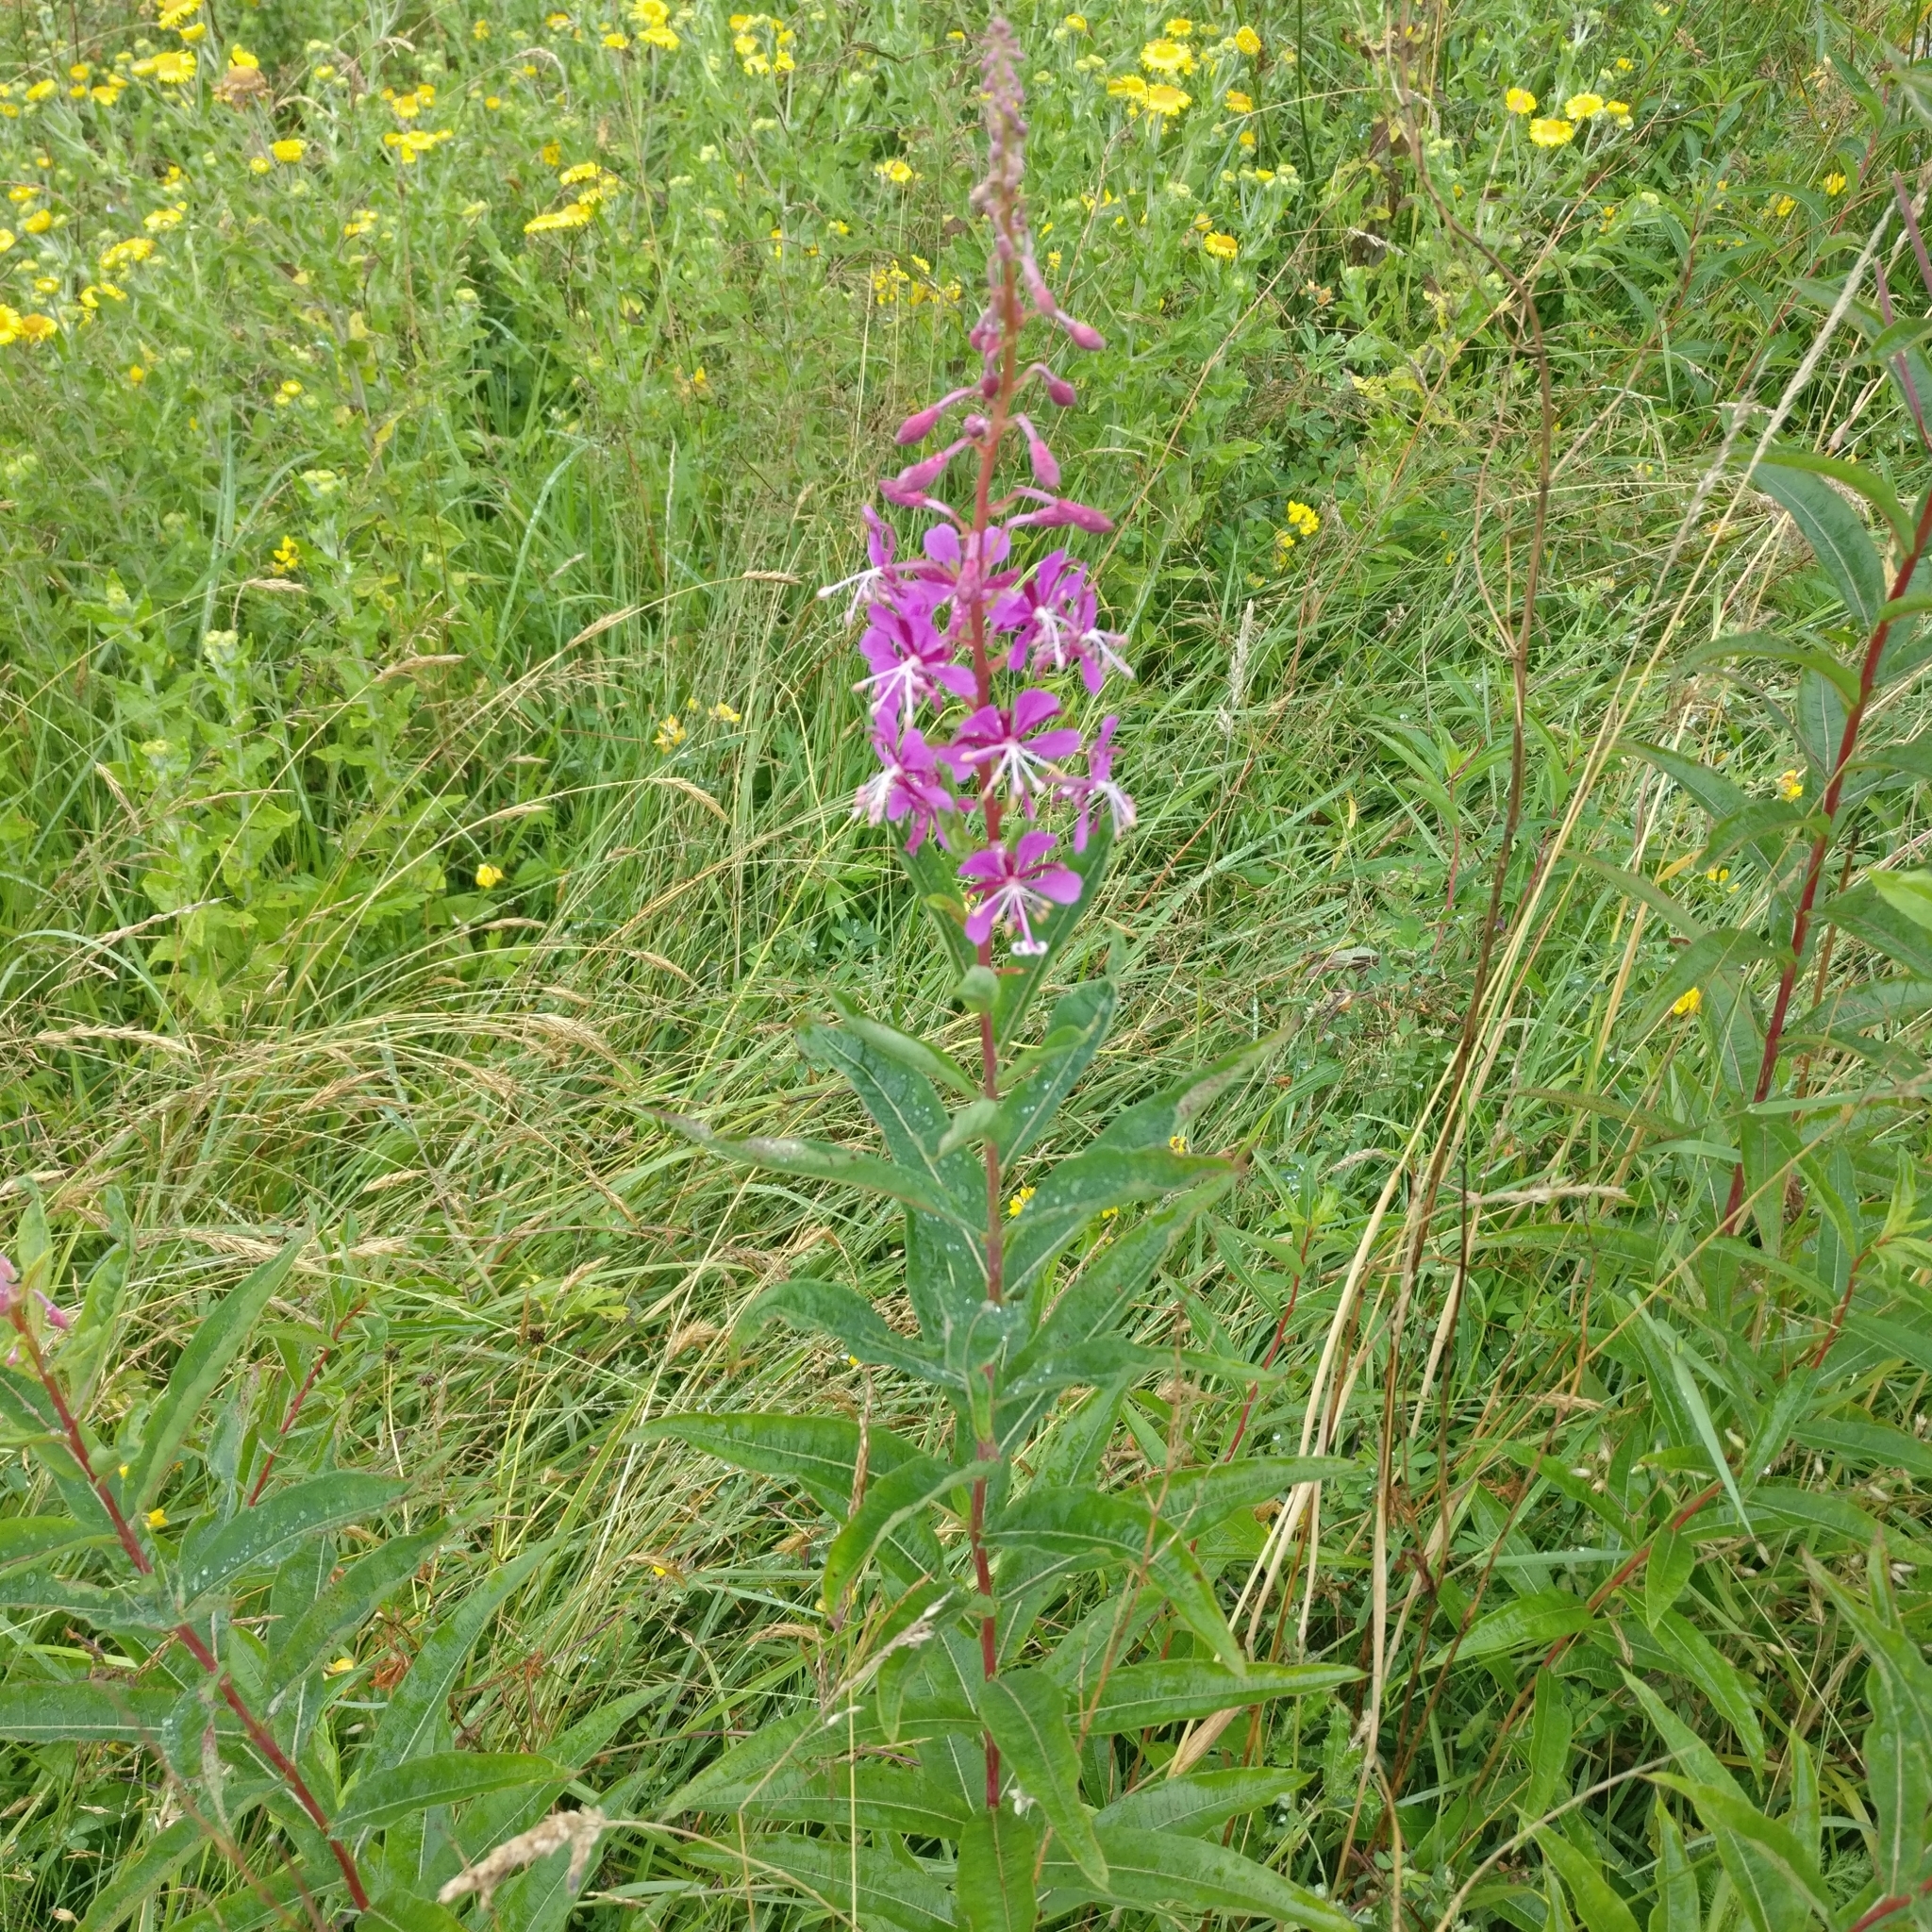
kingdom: Plantae
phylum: Tracheophyta
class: Magnoliopsida
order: Myrtales
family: Onagraceae
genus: Chamaenerion
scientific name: Chamaenerion angustifolium
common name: Fireweed
